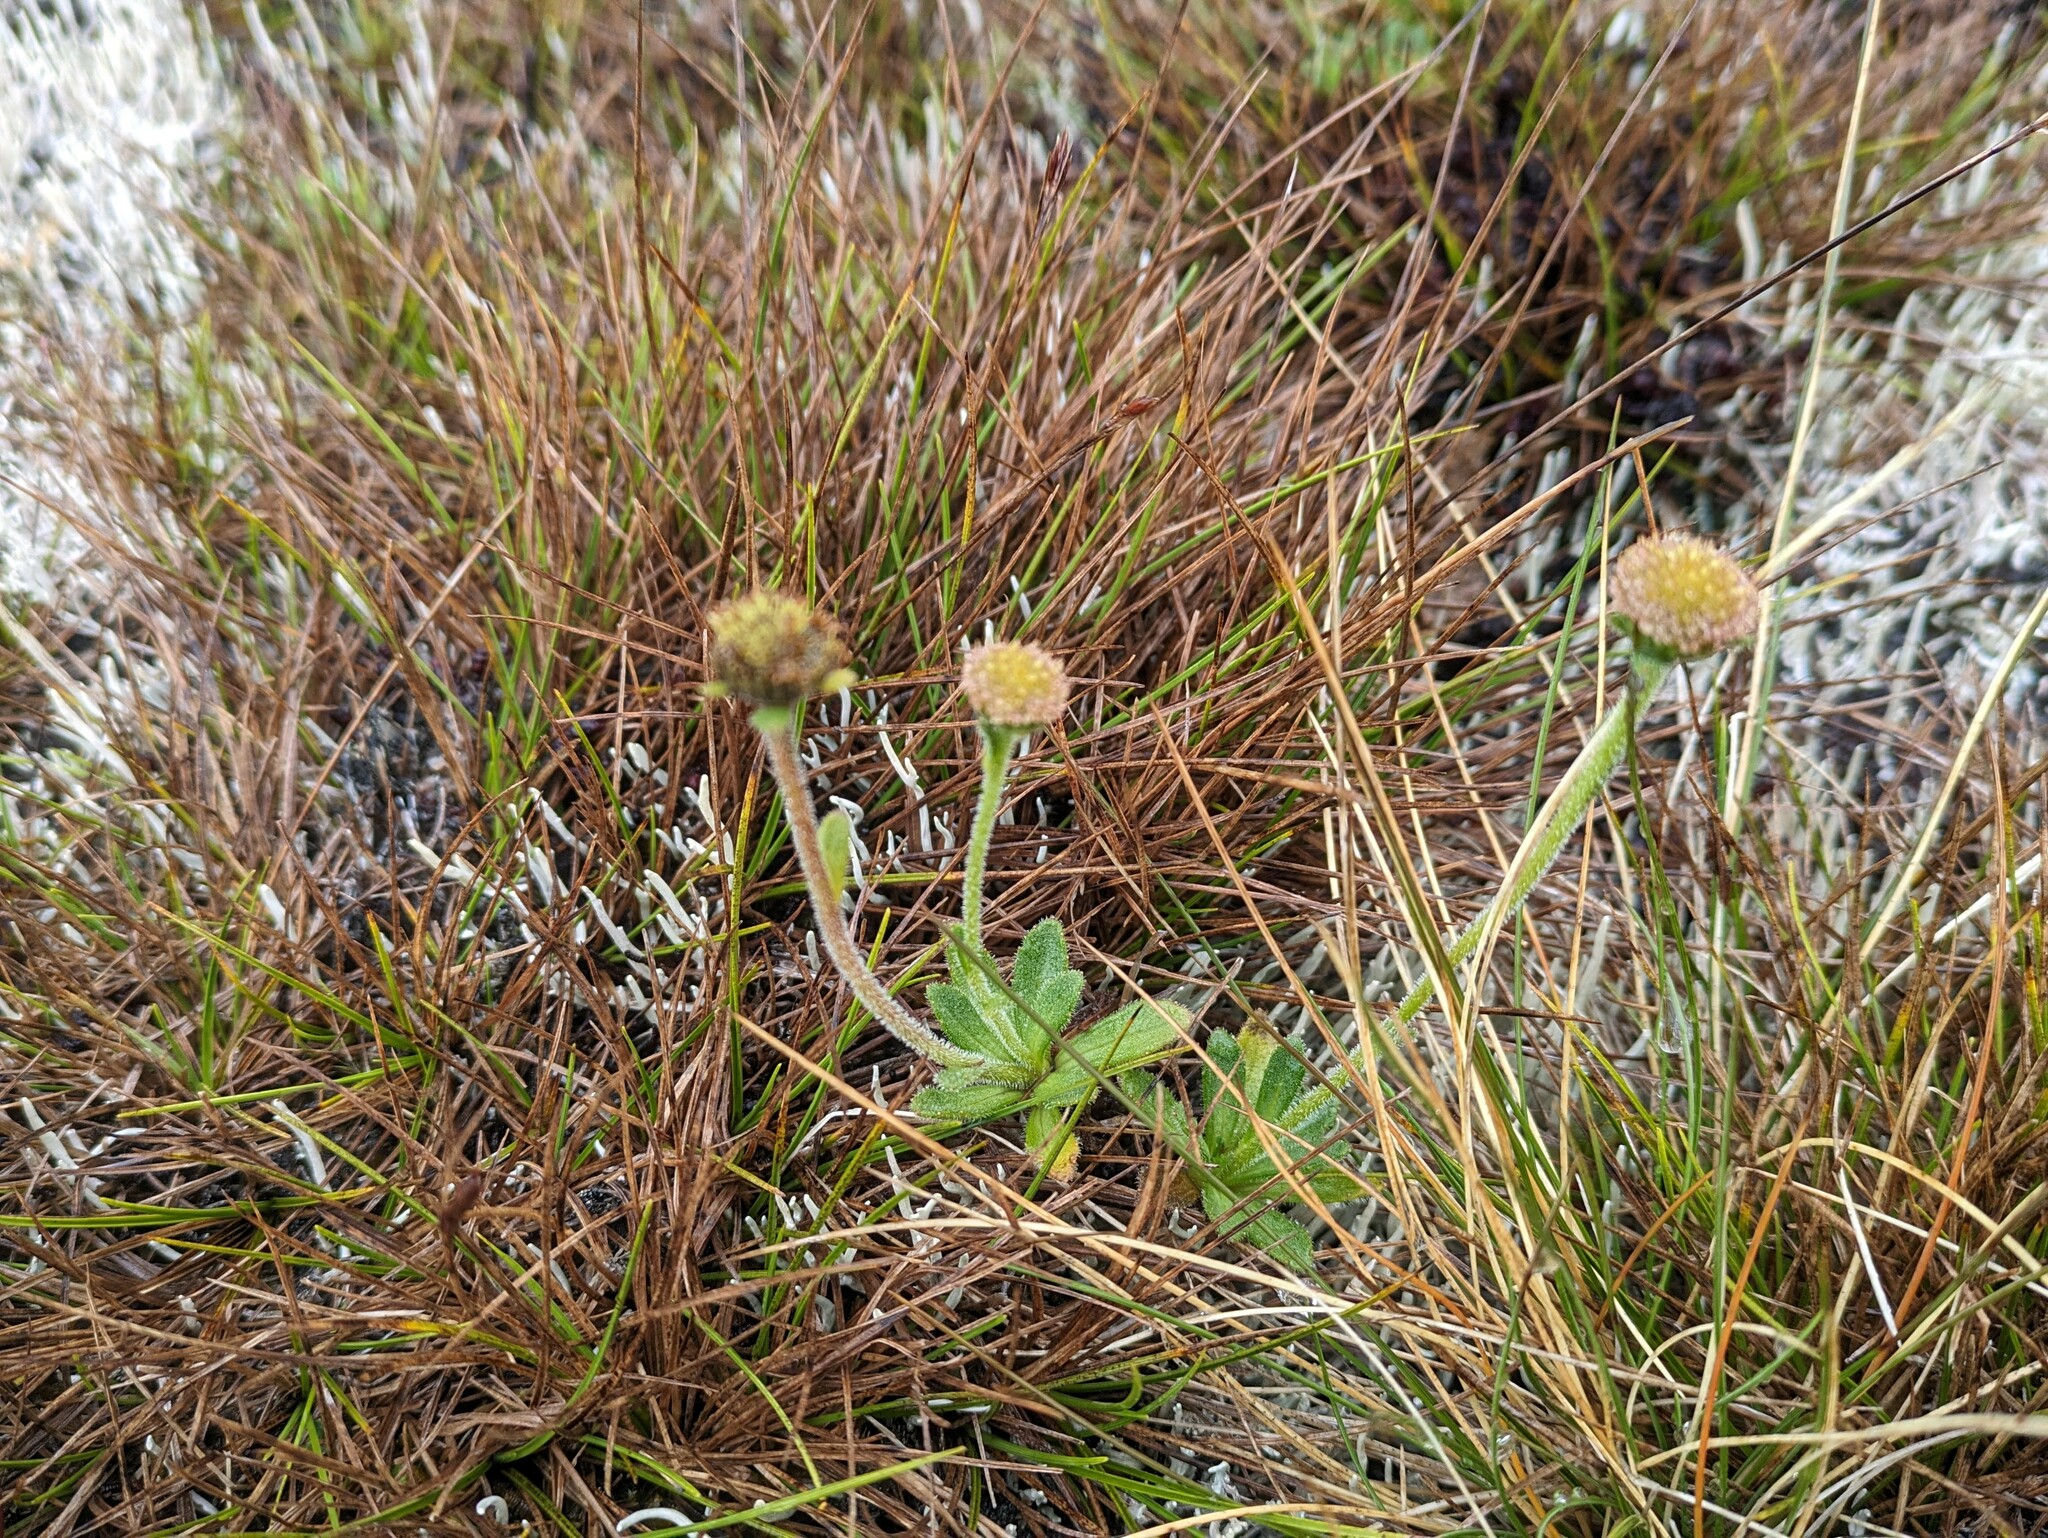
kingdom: Plantae
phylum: Tracheophyta
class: Magnoliopsida
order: Asterales
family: Asteraceae
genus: Helodeaster
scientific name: Helodeaster helenae
